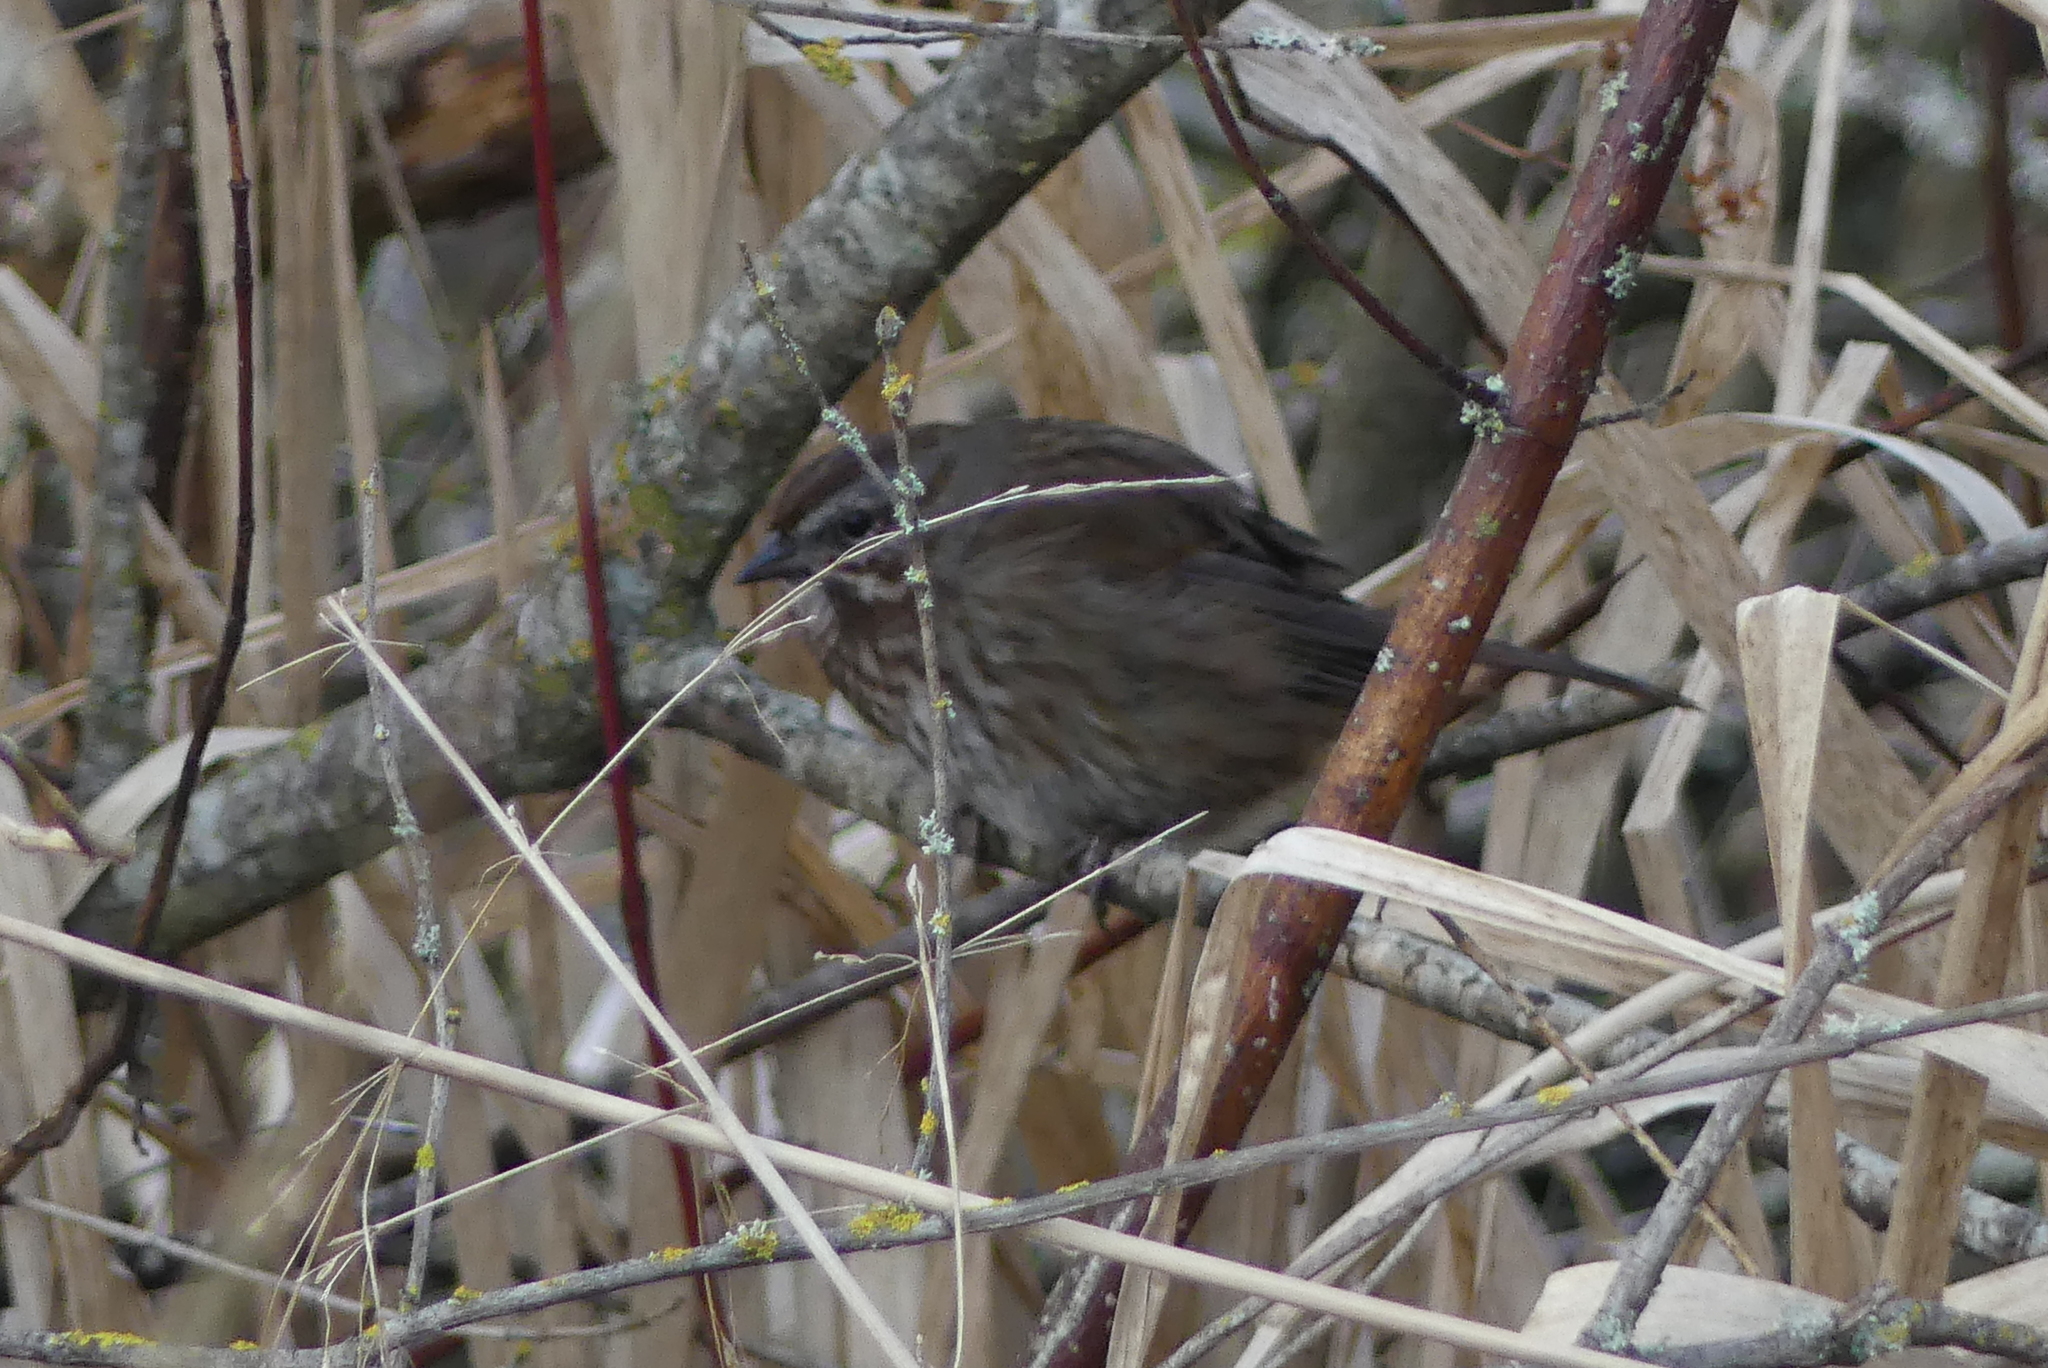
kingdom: Animalia
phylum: Chordata
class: Aves
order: Passeriformes
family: Passerellidae
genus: Melospiza
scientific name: Melospiza melodia
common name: Song sparrow
